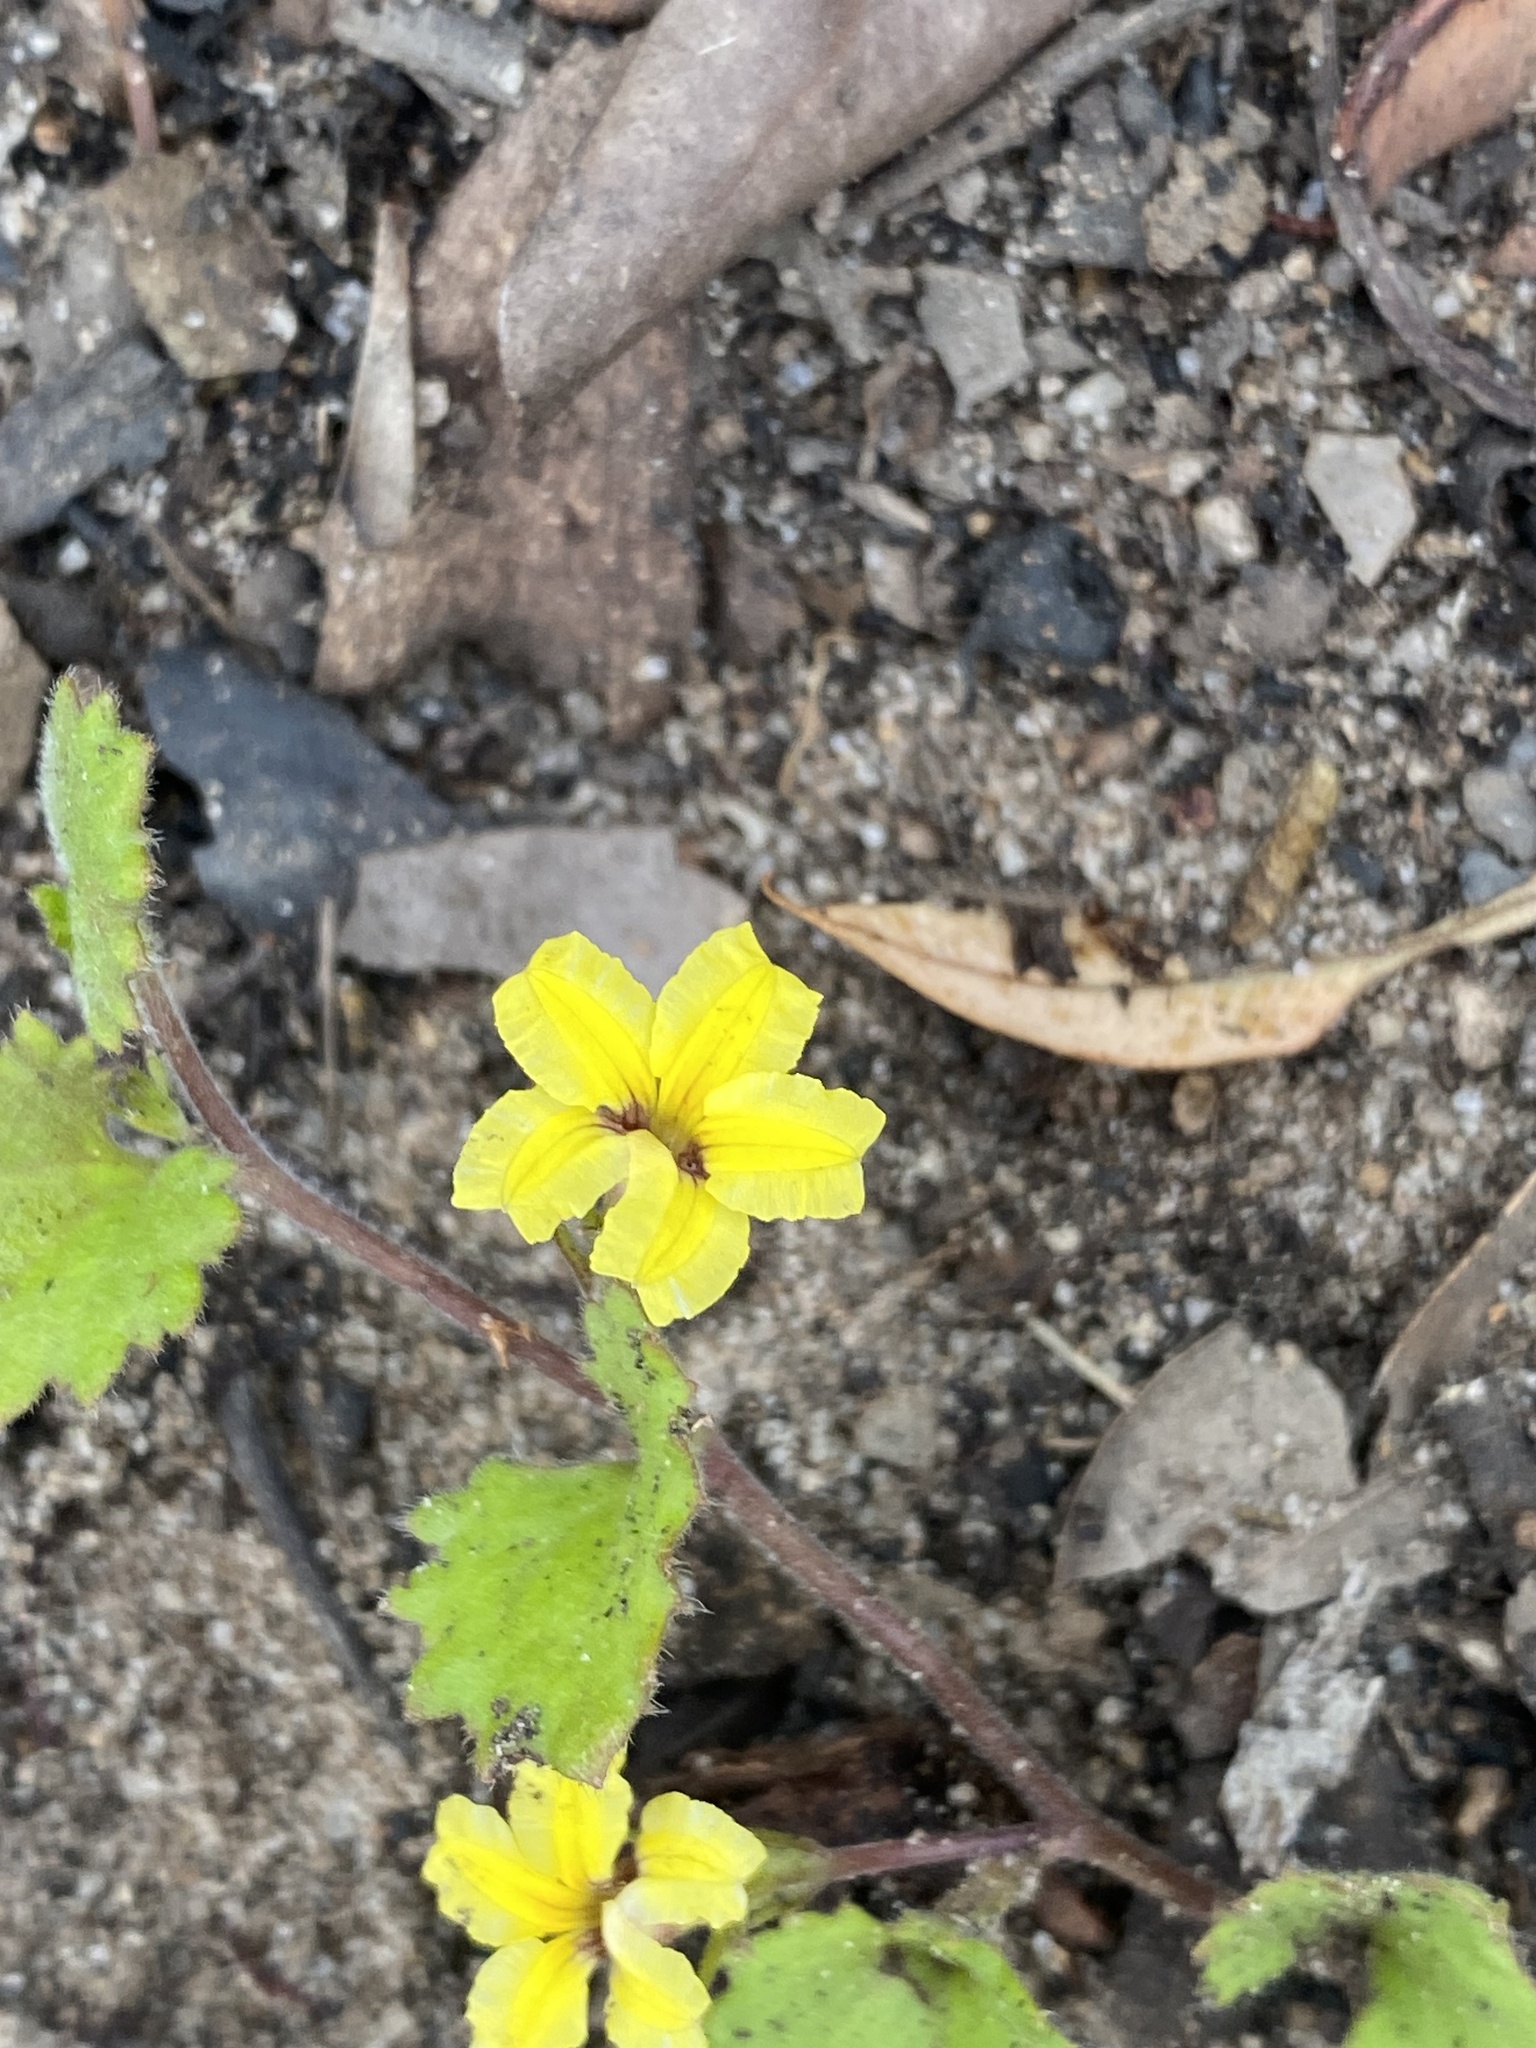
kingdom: Plantae
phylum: Tracheophyta
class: Magnoliopsida
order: Asterales
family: Goodeniaceae
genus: Goodenia
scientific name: Goodenia rotundifolia
